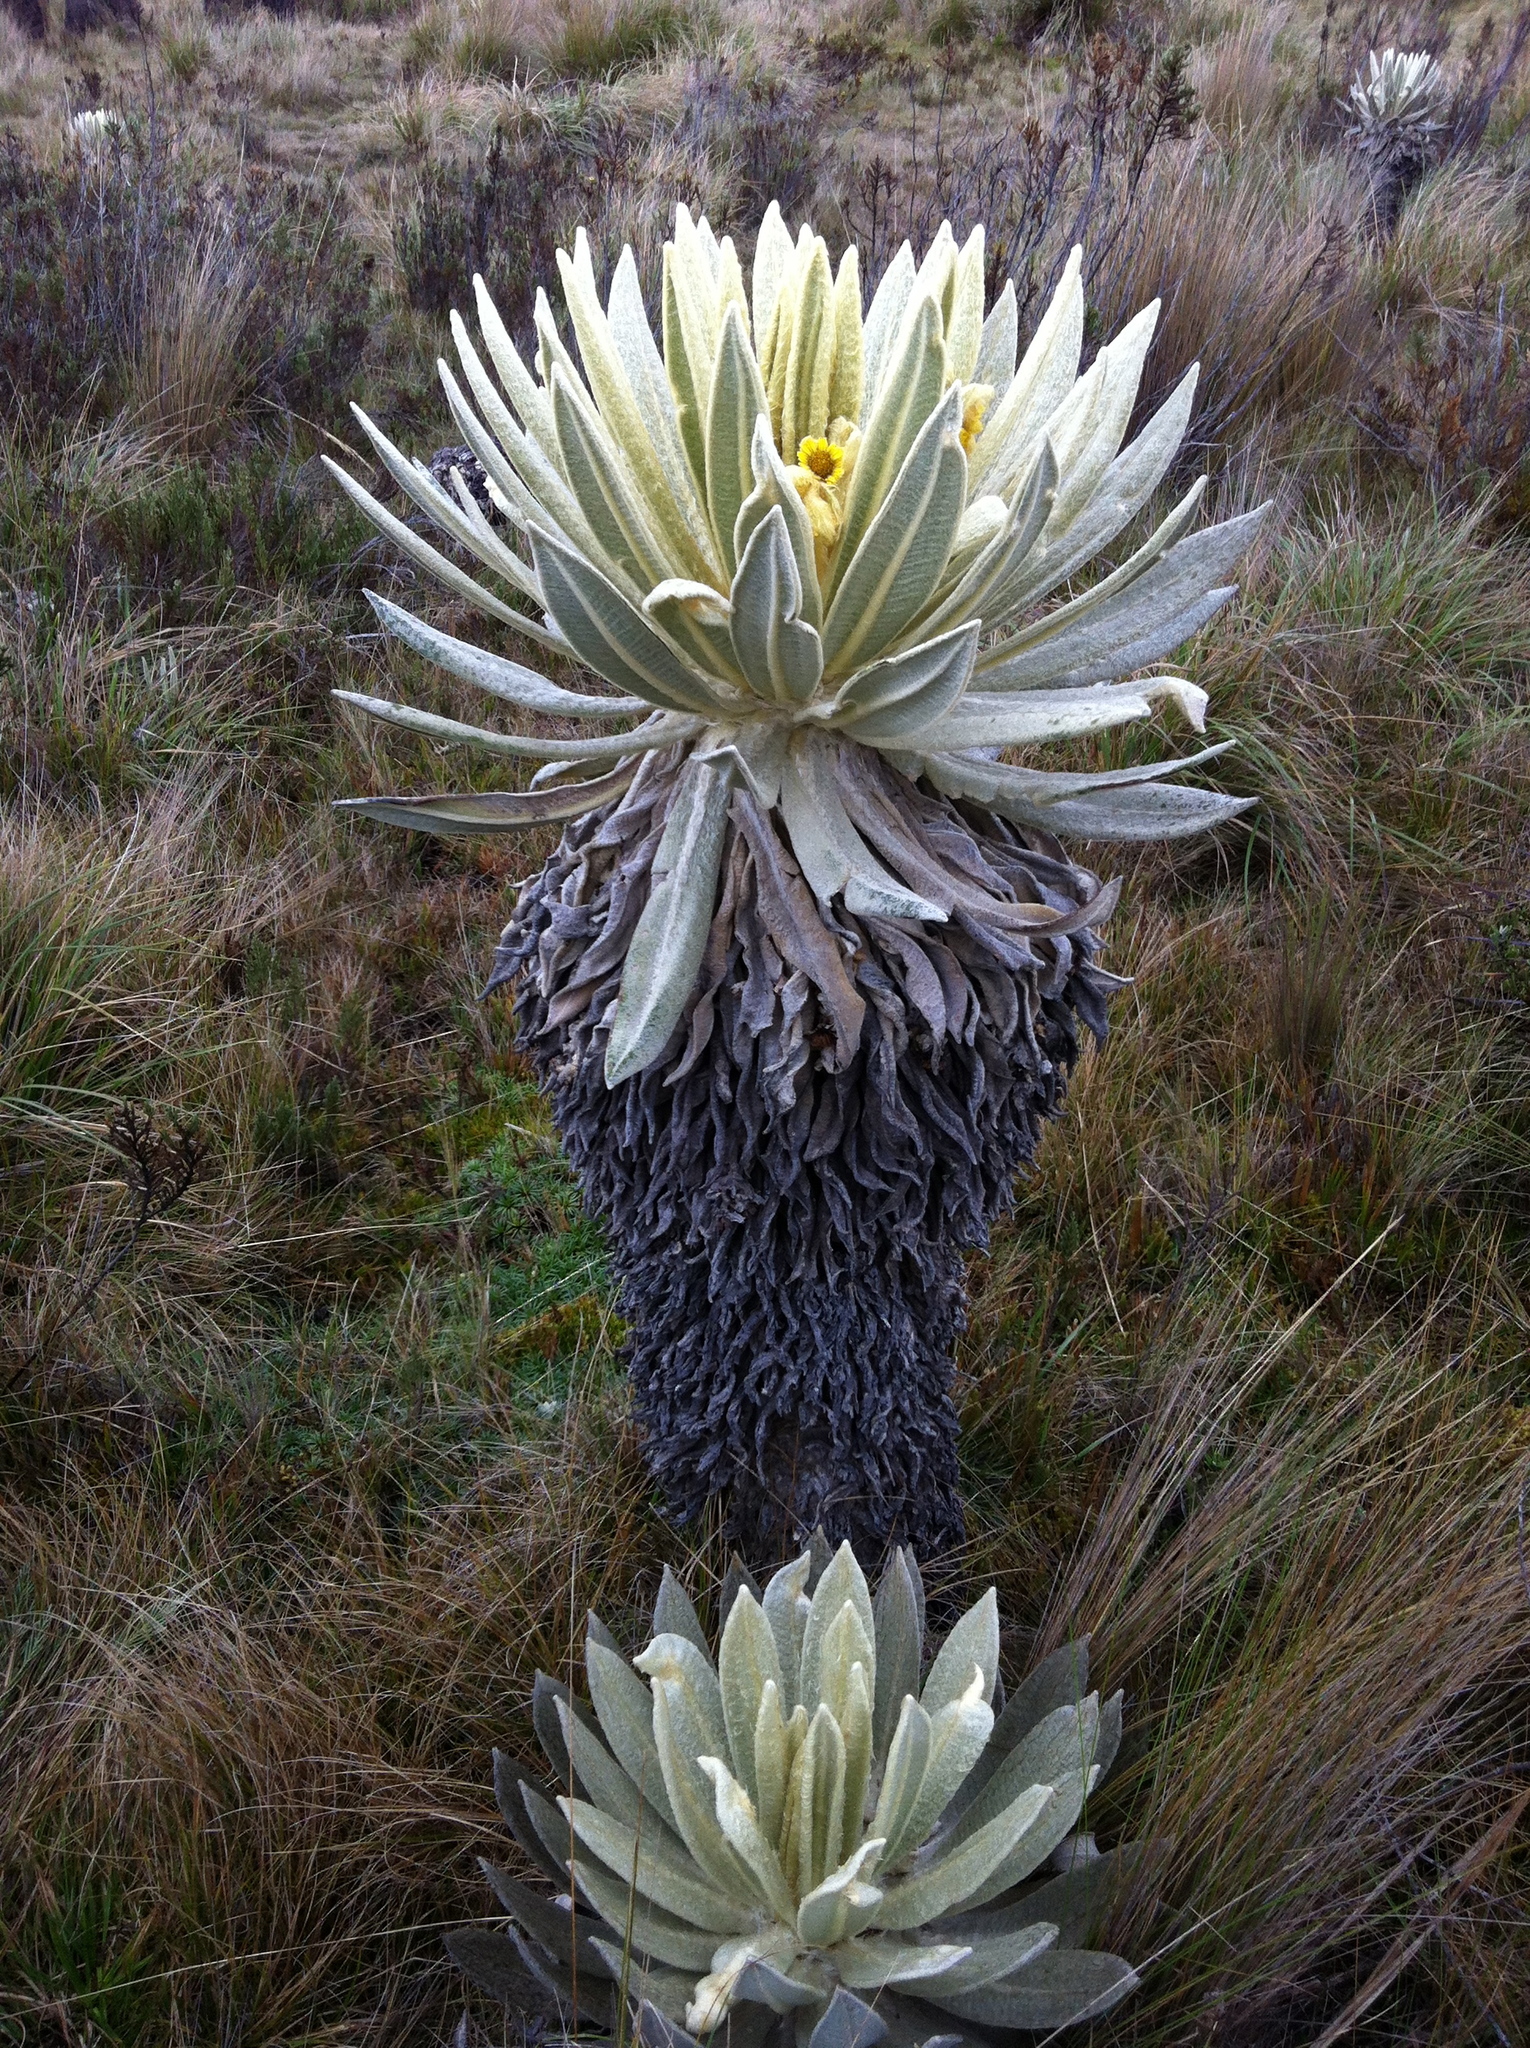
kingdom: Plantae
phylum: Tracheophyta
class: Magnoliopsida
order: Asterales
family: Asteraceae
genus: Espeletia
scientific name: Espeletia pycnophylla
